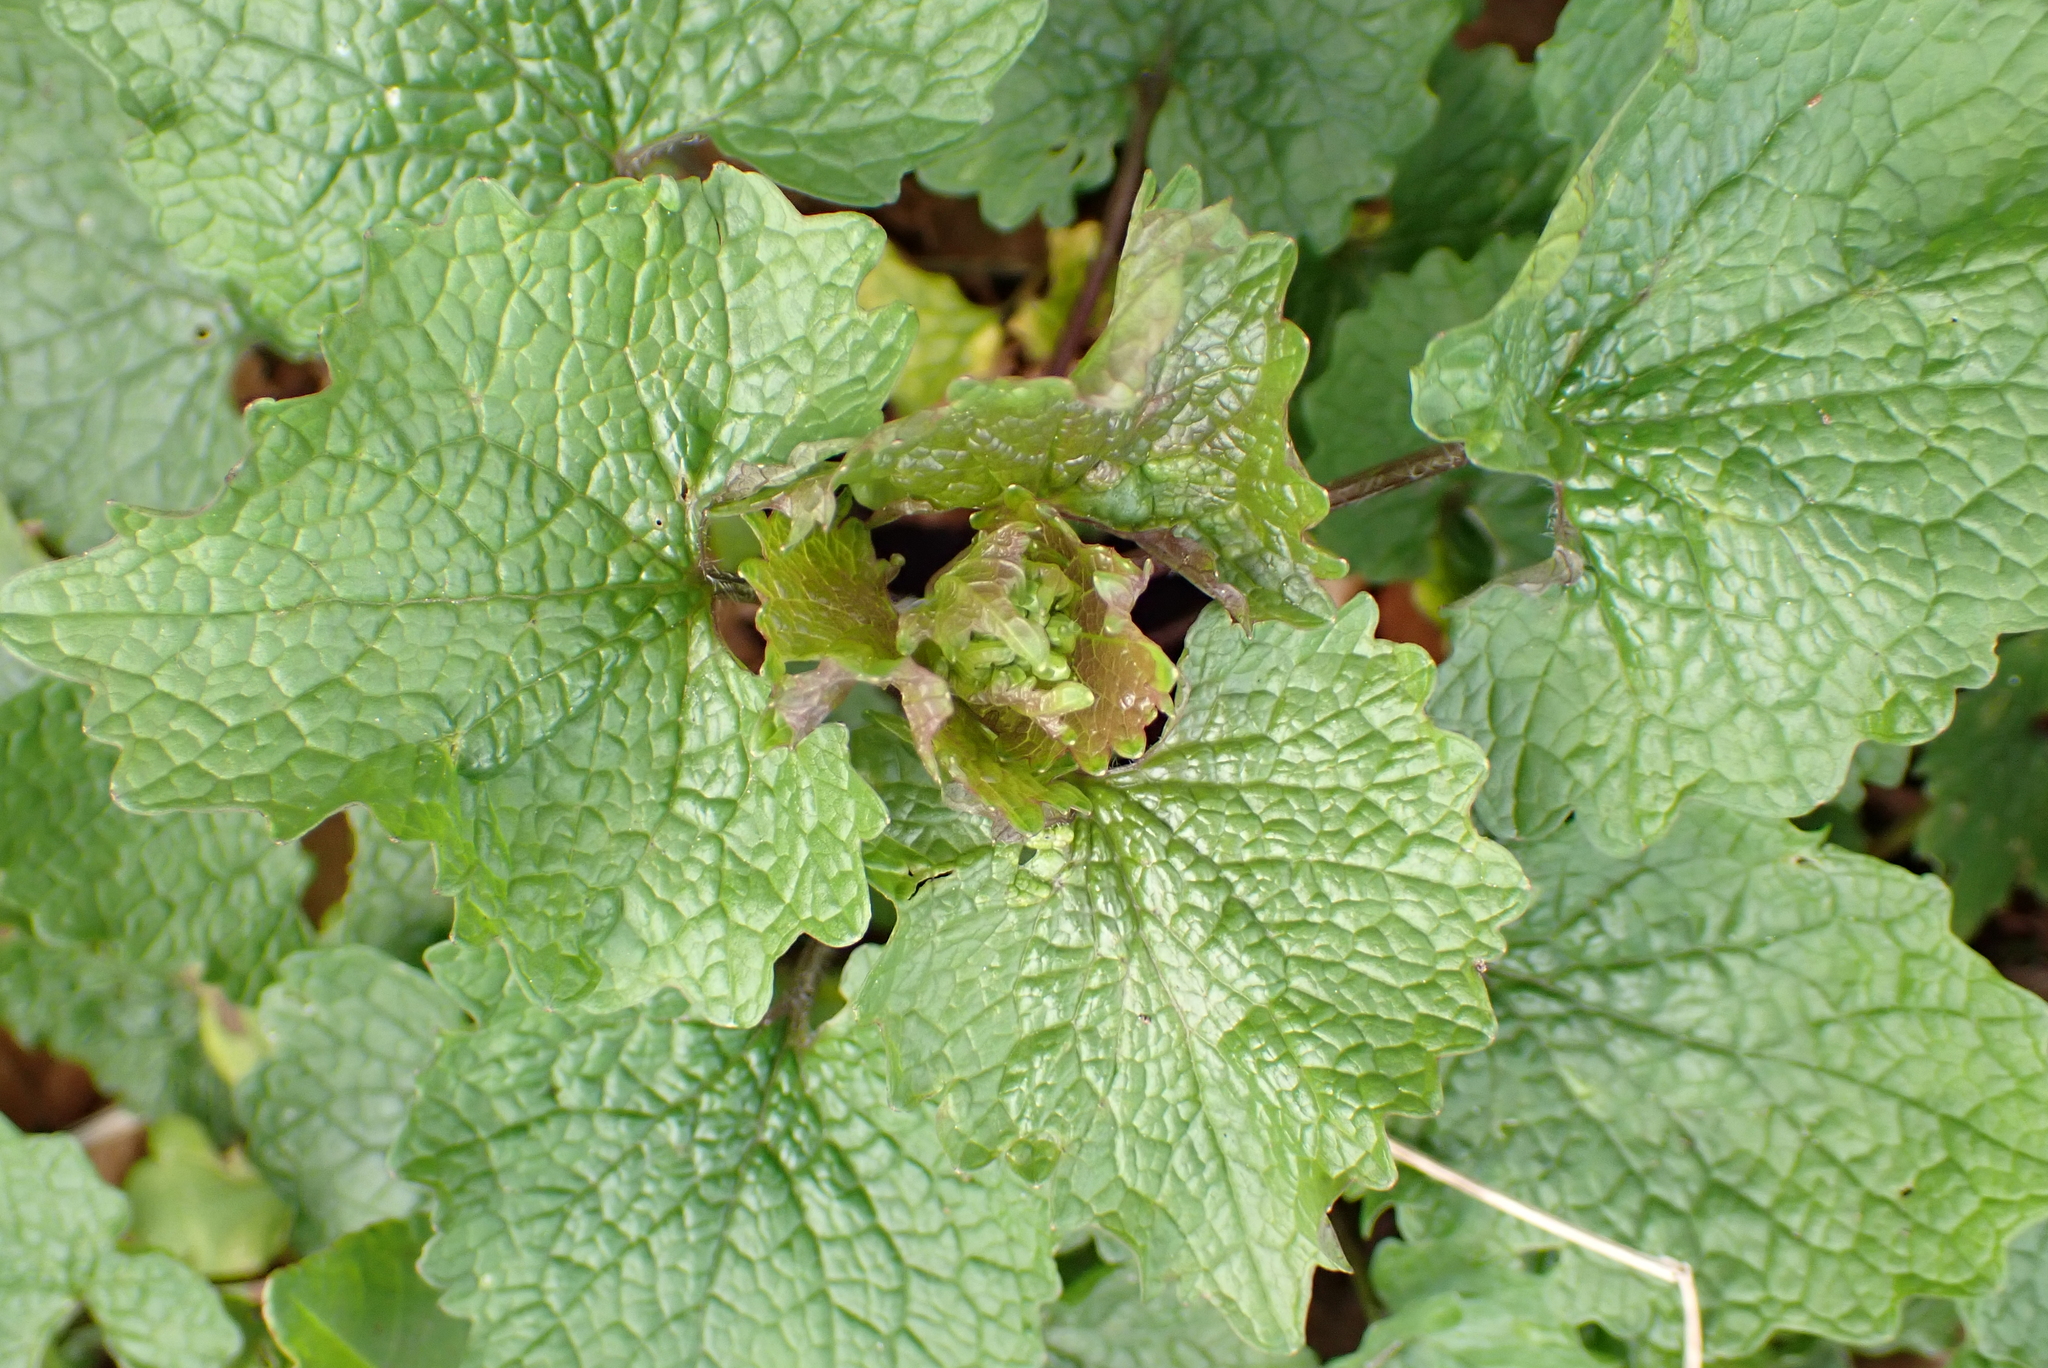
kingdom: Plantae
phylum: Tracheophyta
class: Magnoliopsida
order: Brassicales
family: Brassicaceae
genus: Alliaria
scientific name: Alliaria petiolata
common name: Garlic mustard
